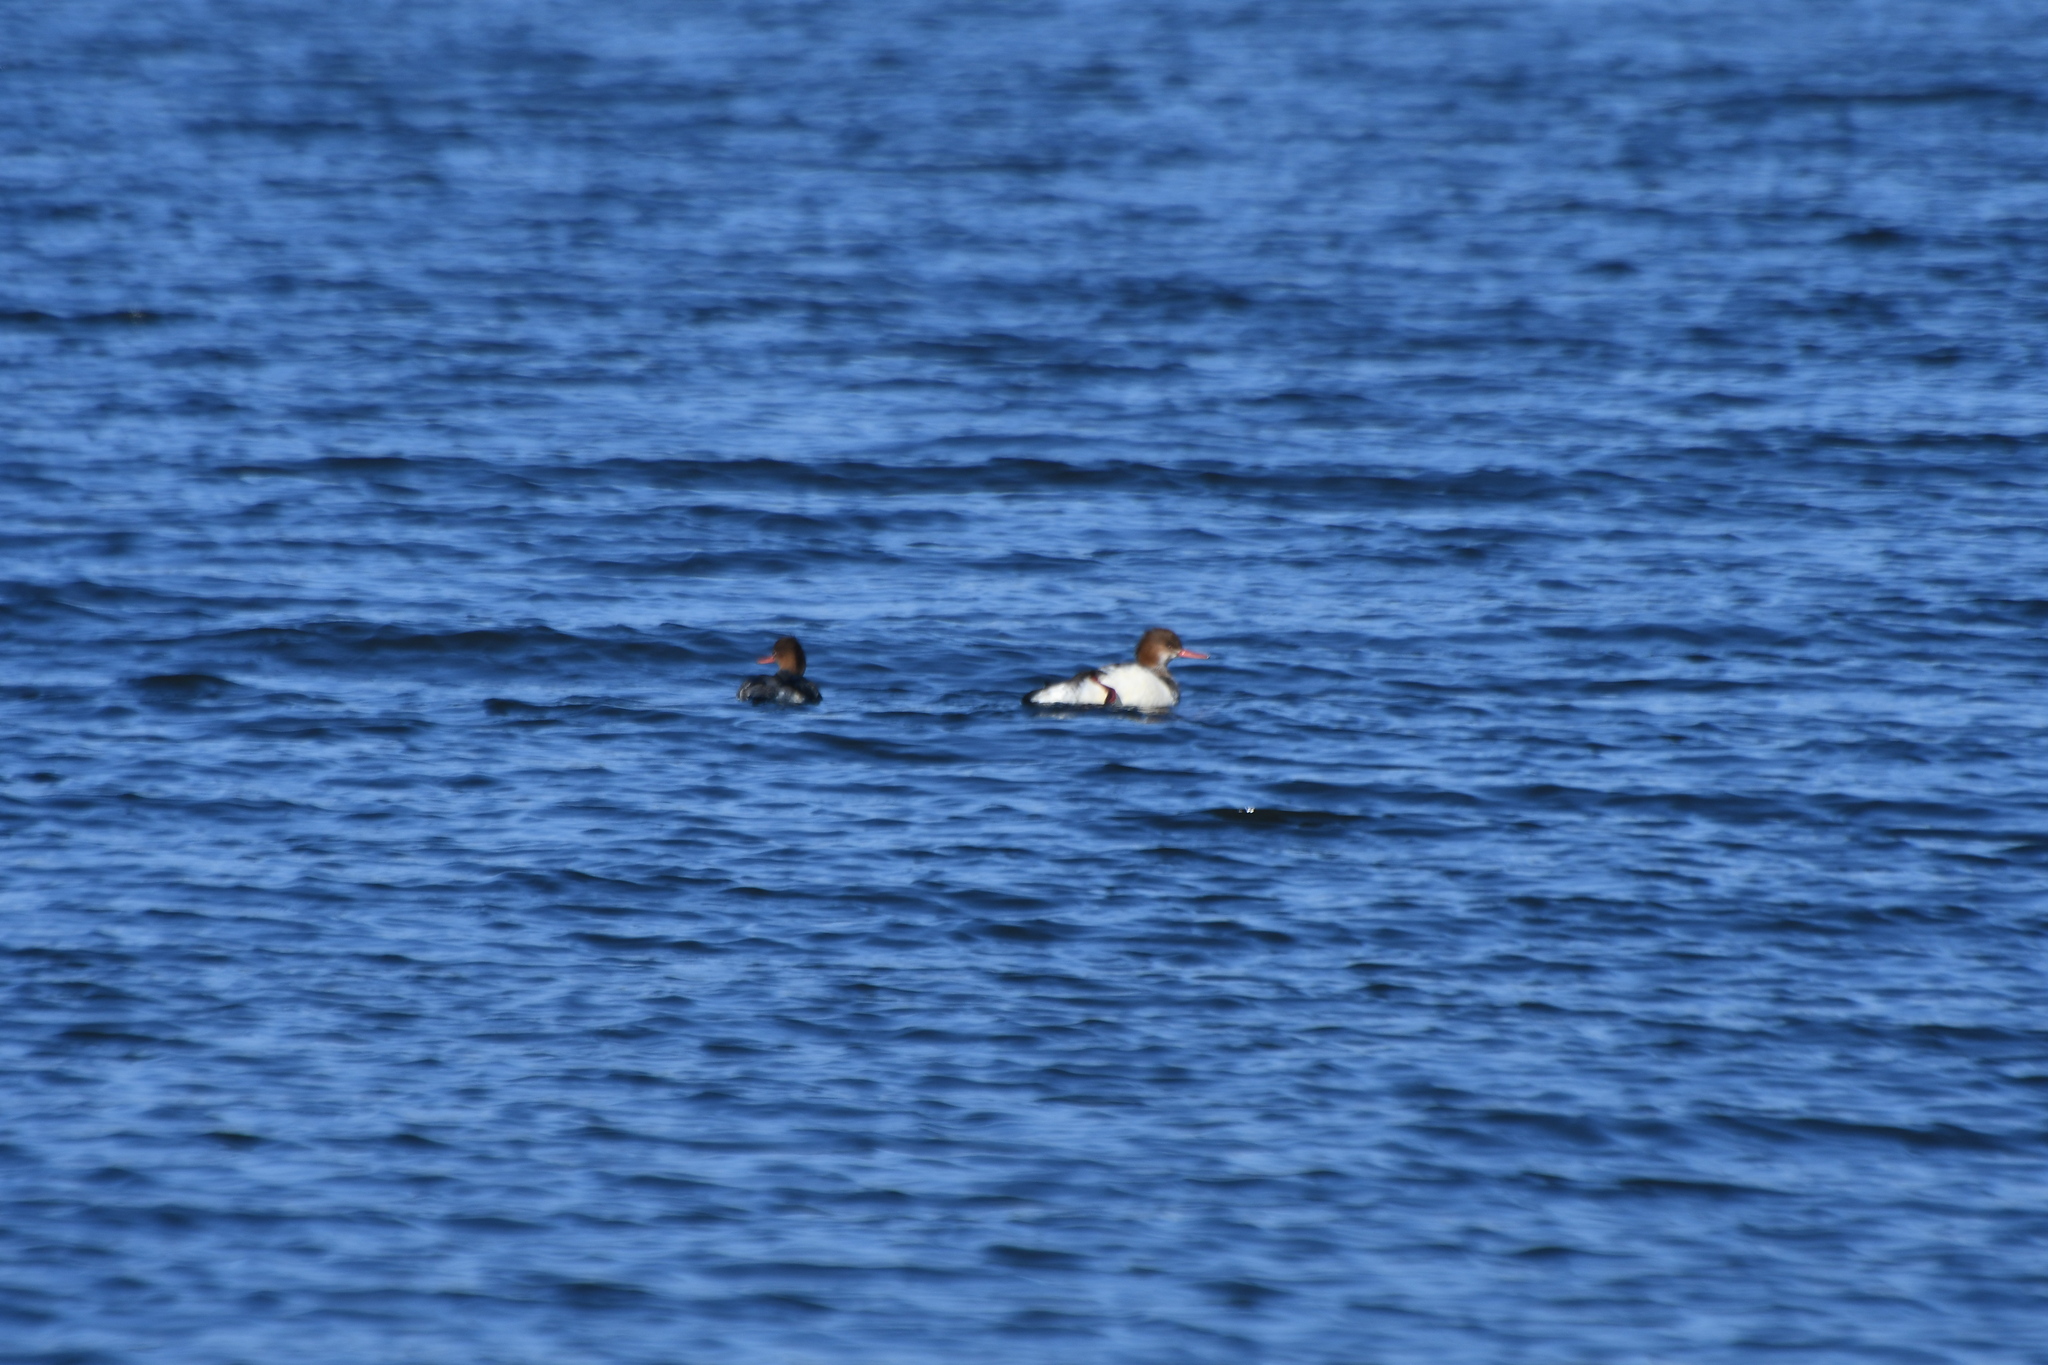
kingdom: Animalia
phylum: Chordata
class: Aves
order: Anseriformes
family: Anatidae
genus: Mergus
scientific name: Mergus serrator
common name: Red-breasted merganser
